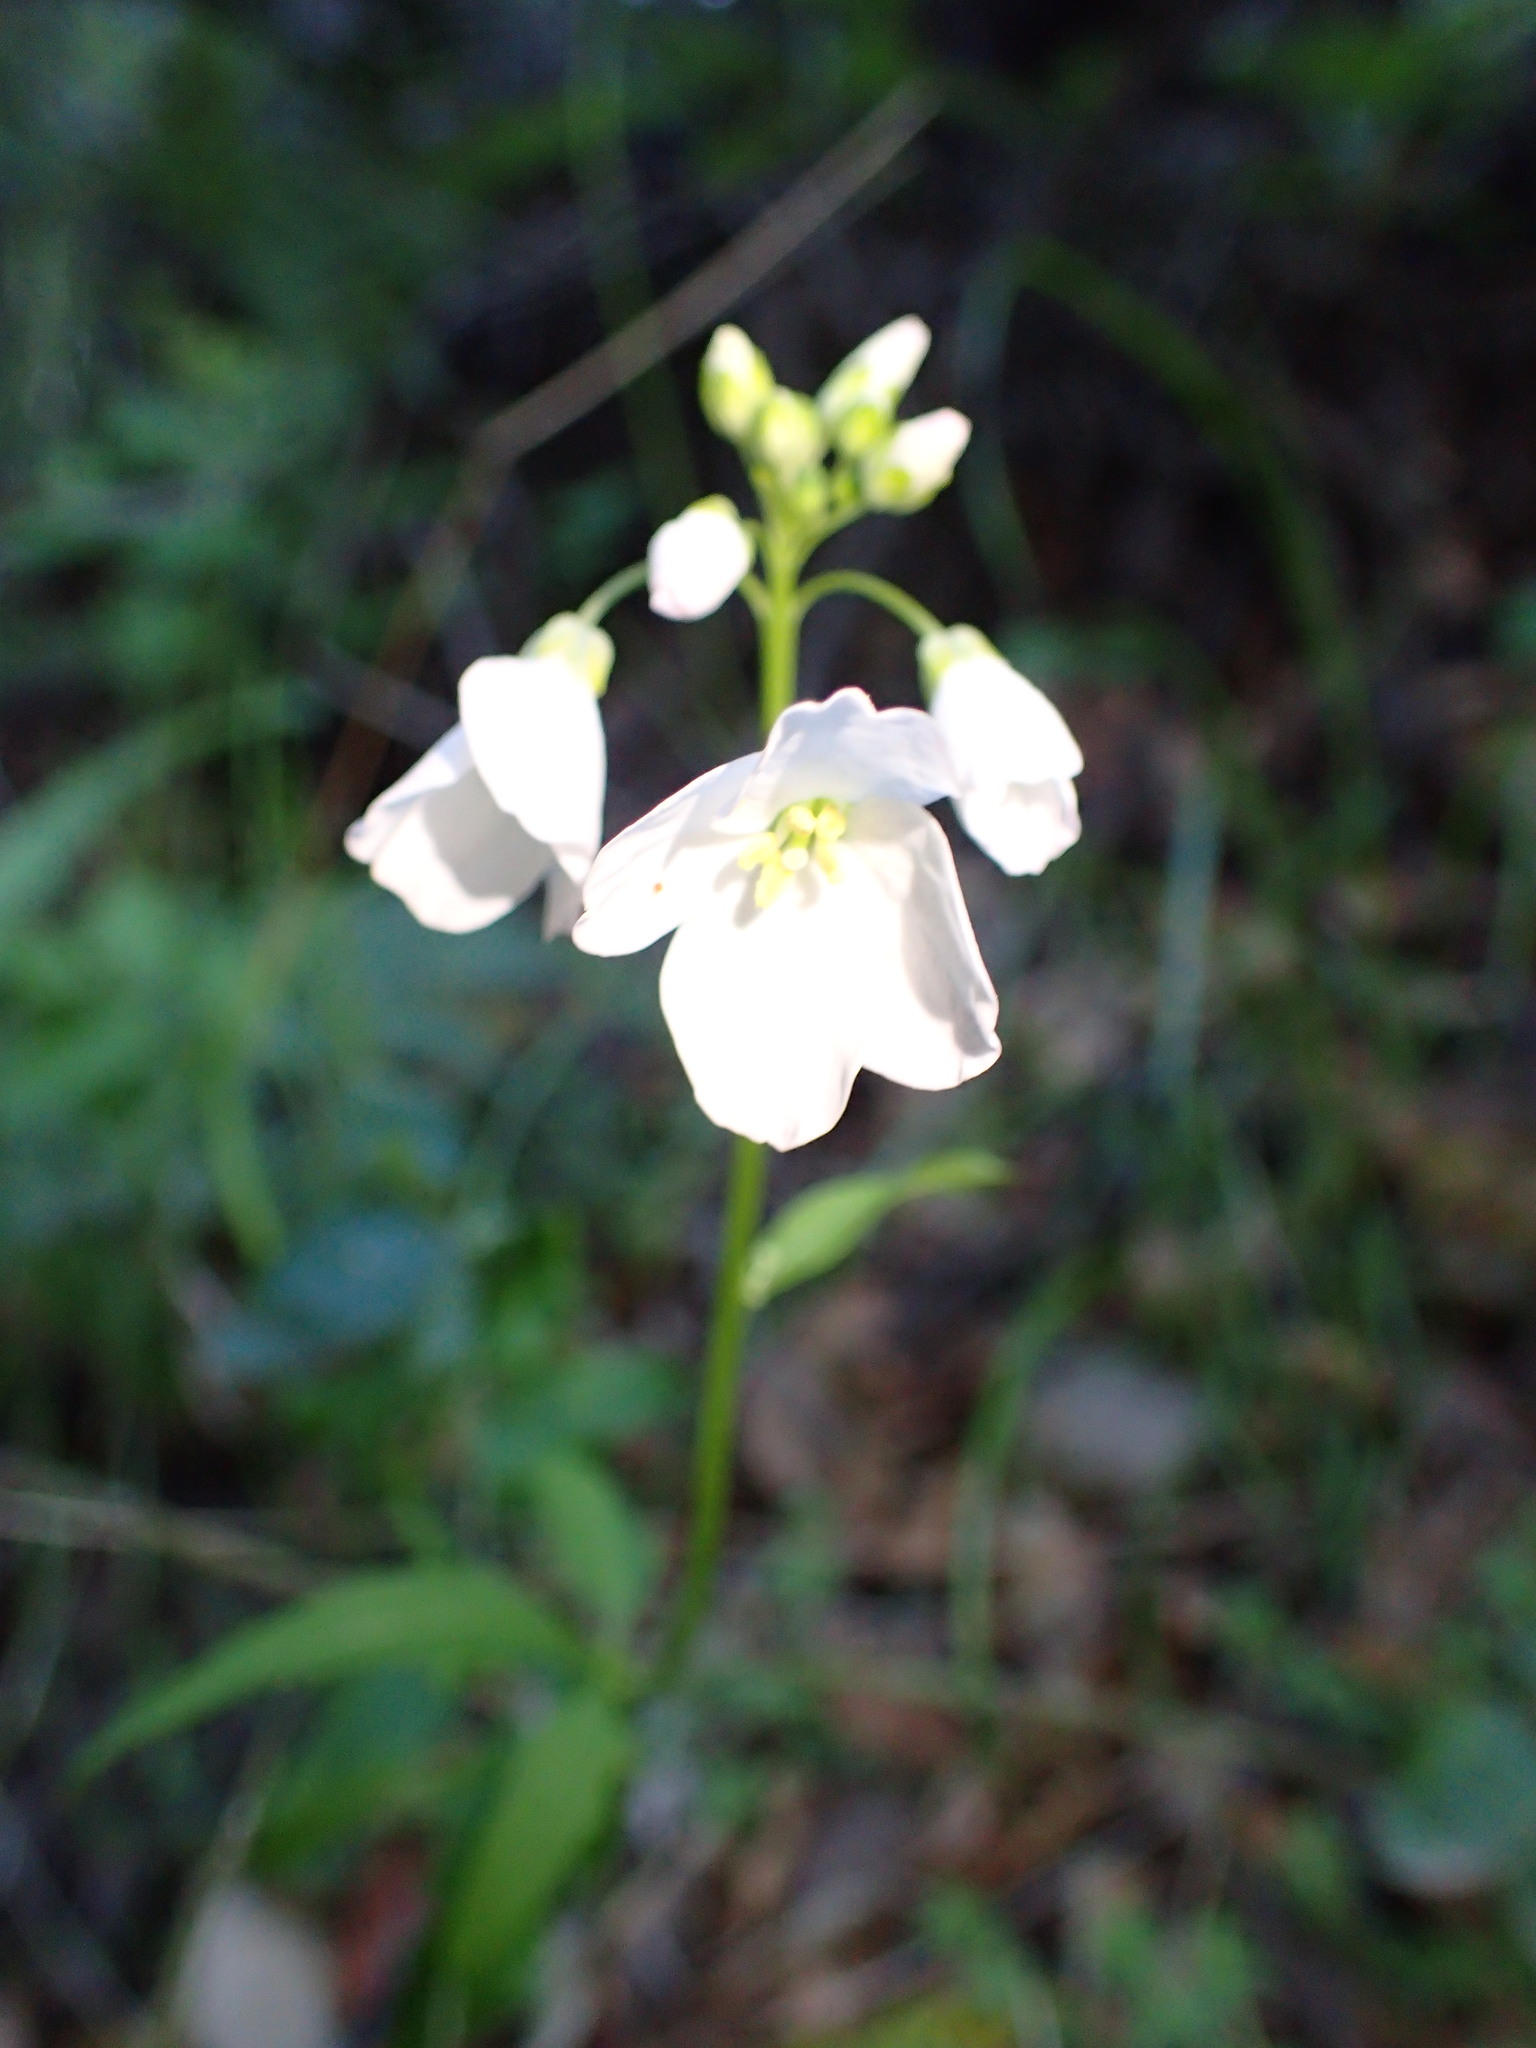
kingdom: Plantae
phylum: Tracheophyta
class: Magnoliopsida
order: Brassicales
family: Brassicaceae
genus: Cardamine
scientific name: Cardamine californica
